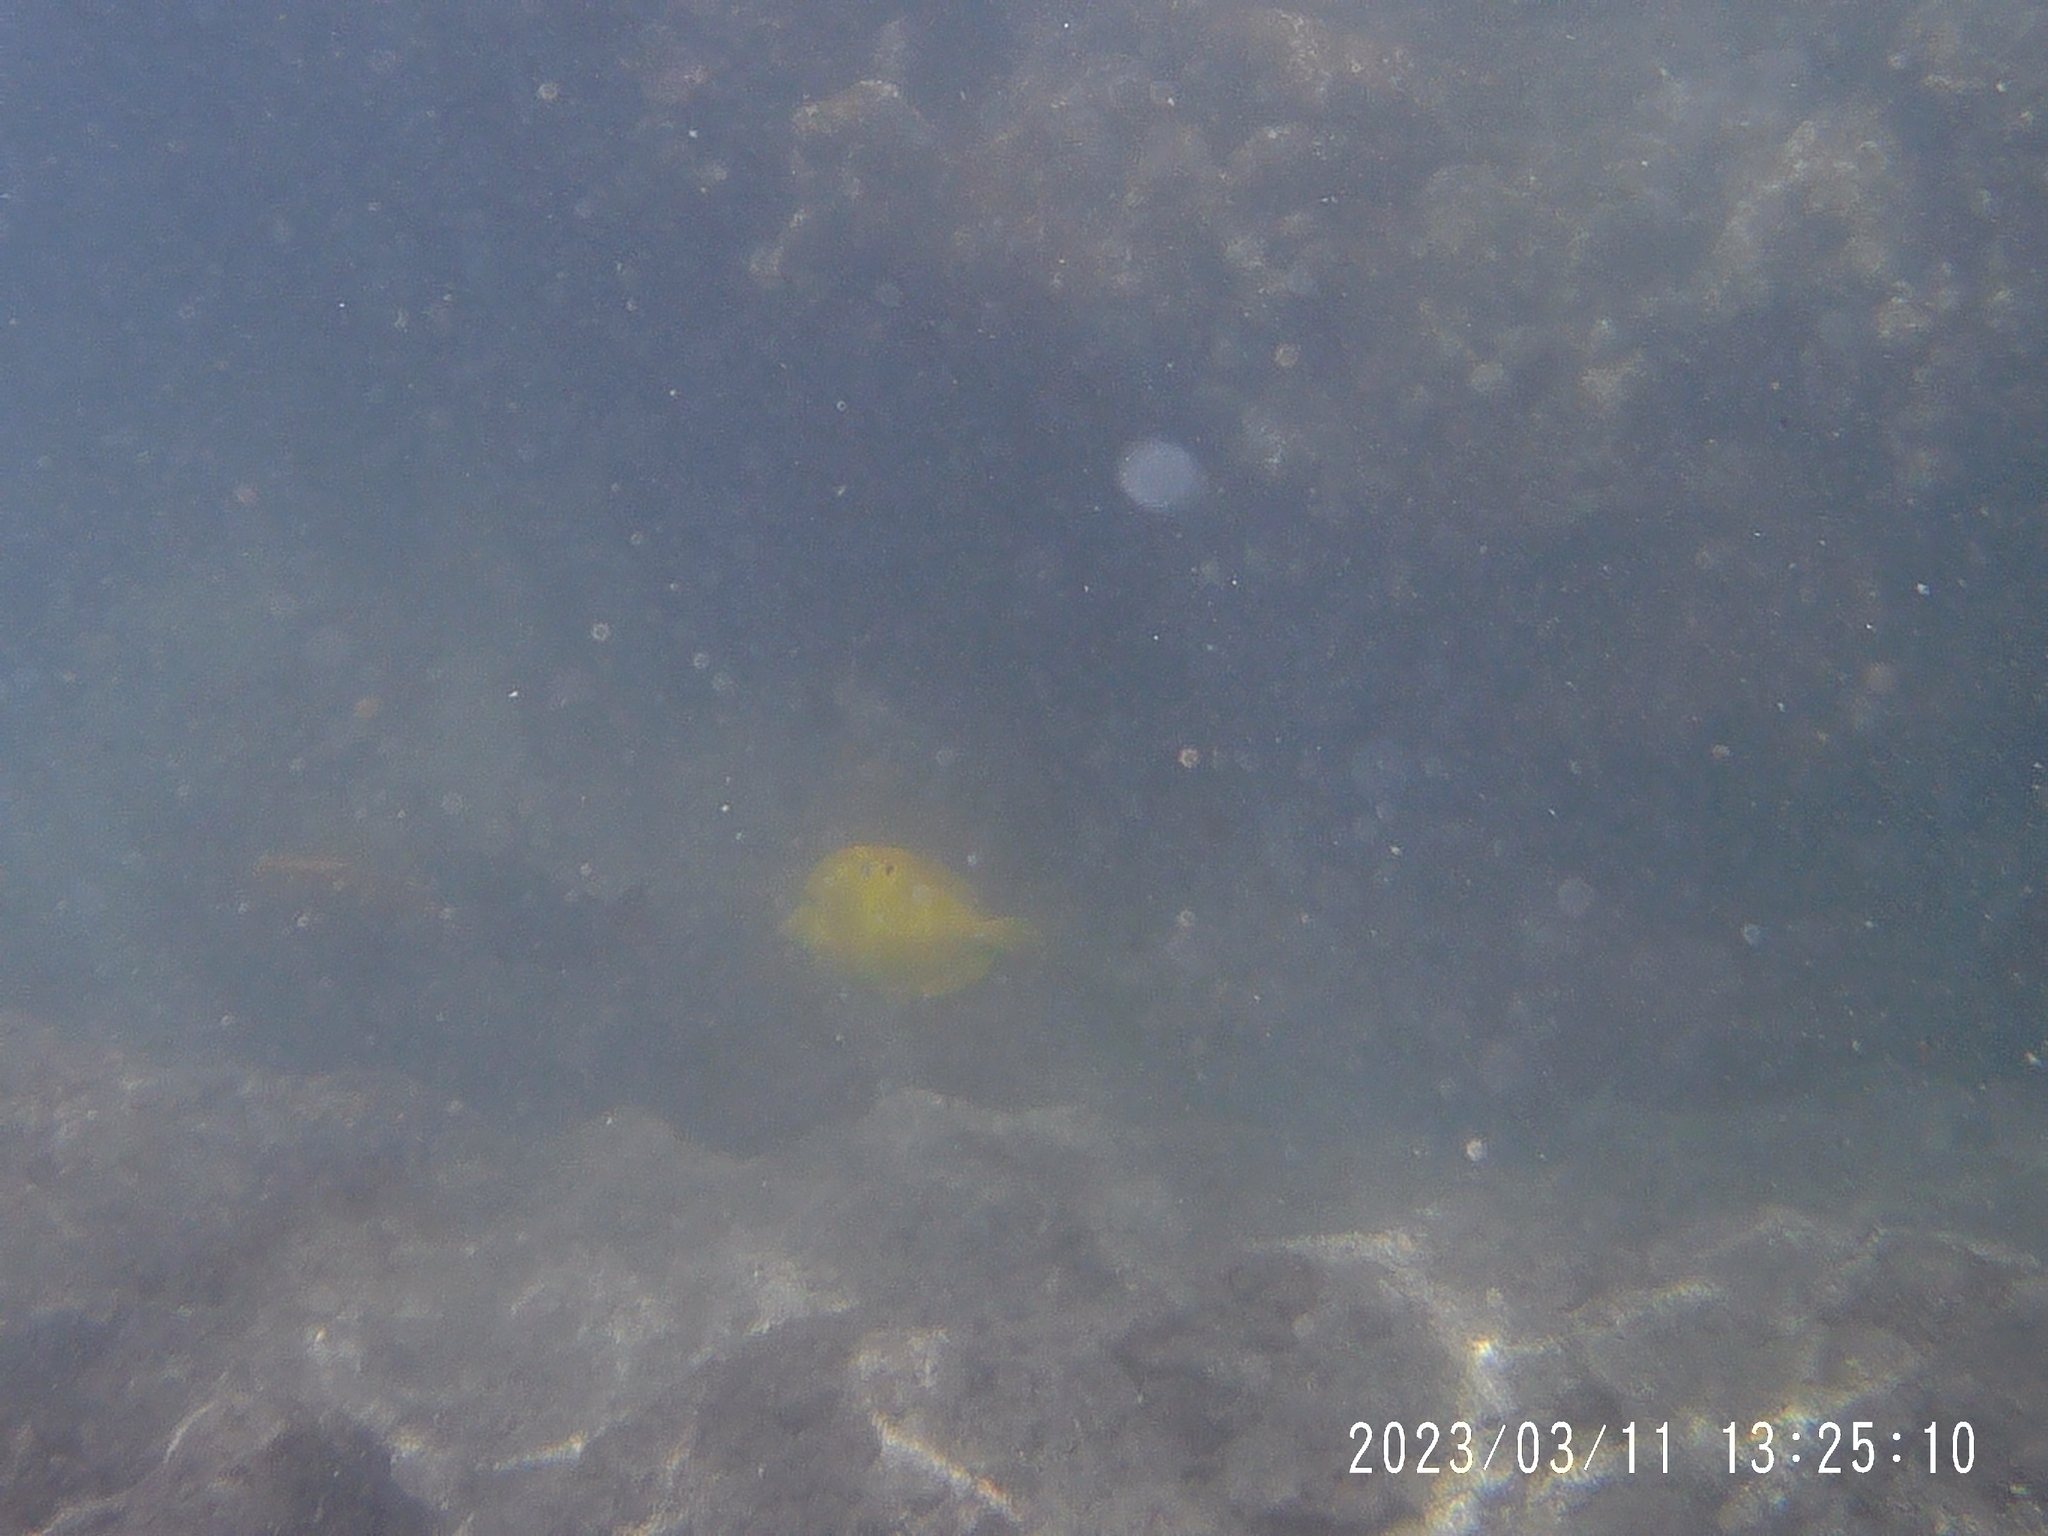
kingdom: Animalia
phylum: Chordata
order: Perciformes
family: Acanthuridae
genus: Zebrasoma
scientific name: Zebrasoma flavescens
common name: Yellow tang
